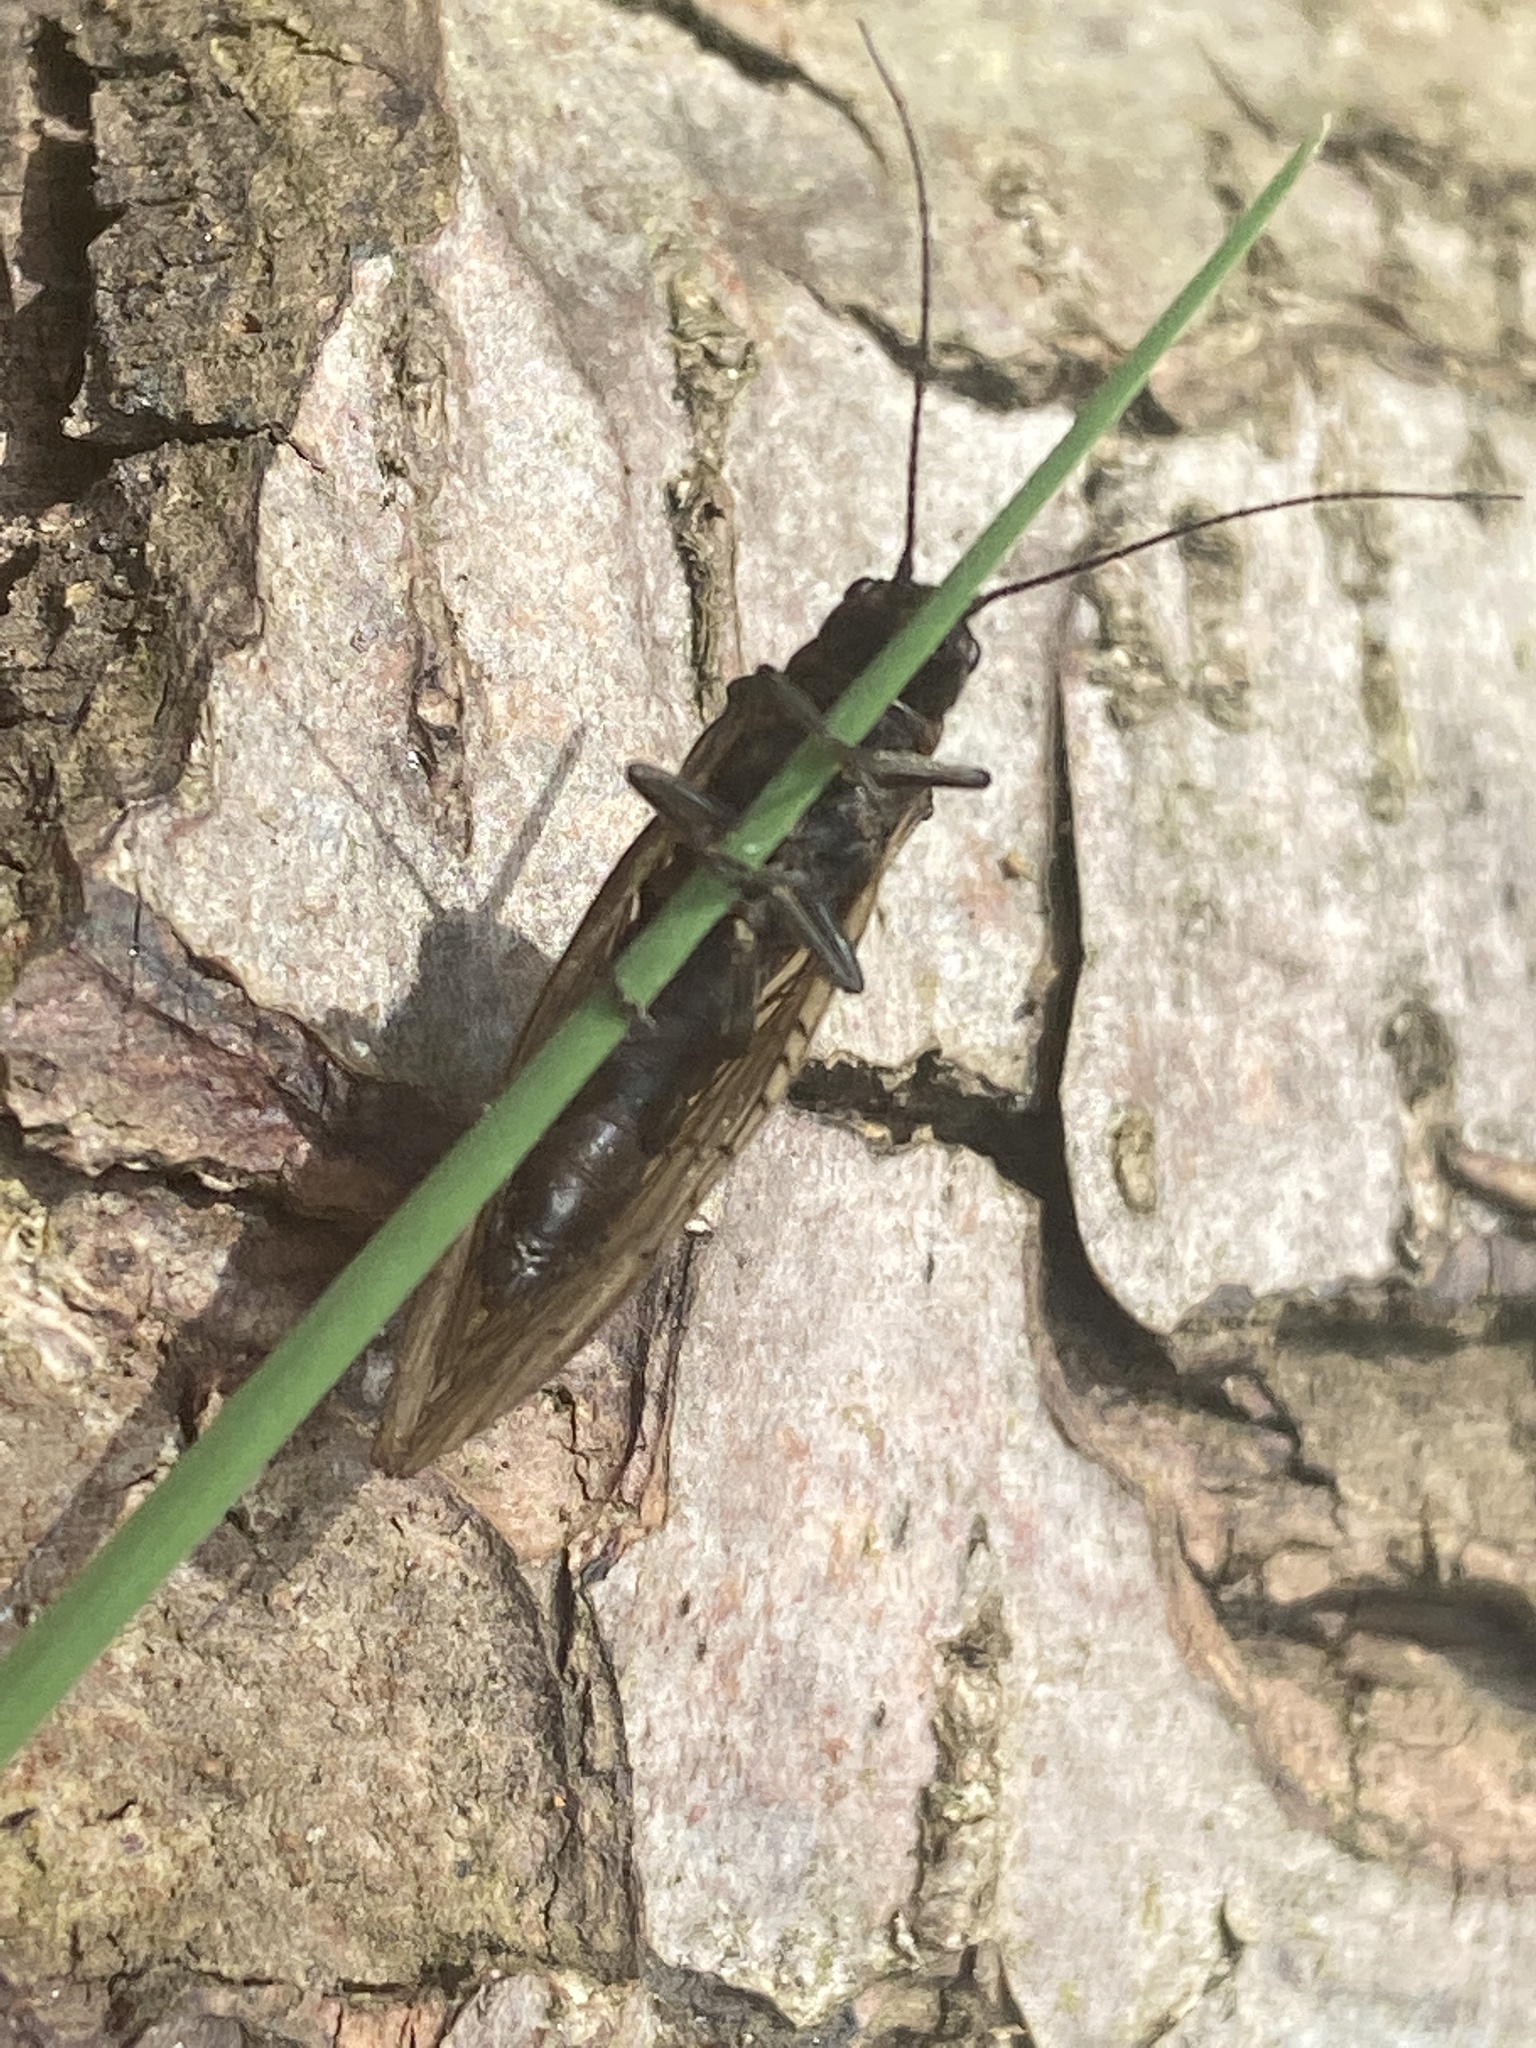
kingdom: Animalia
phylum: Arthropoda
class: Insecta
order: Megaloptera
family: Sialidae
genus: Sialis
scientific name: Sialis
